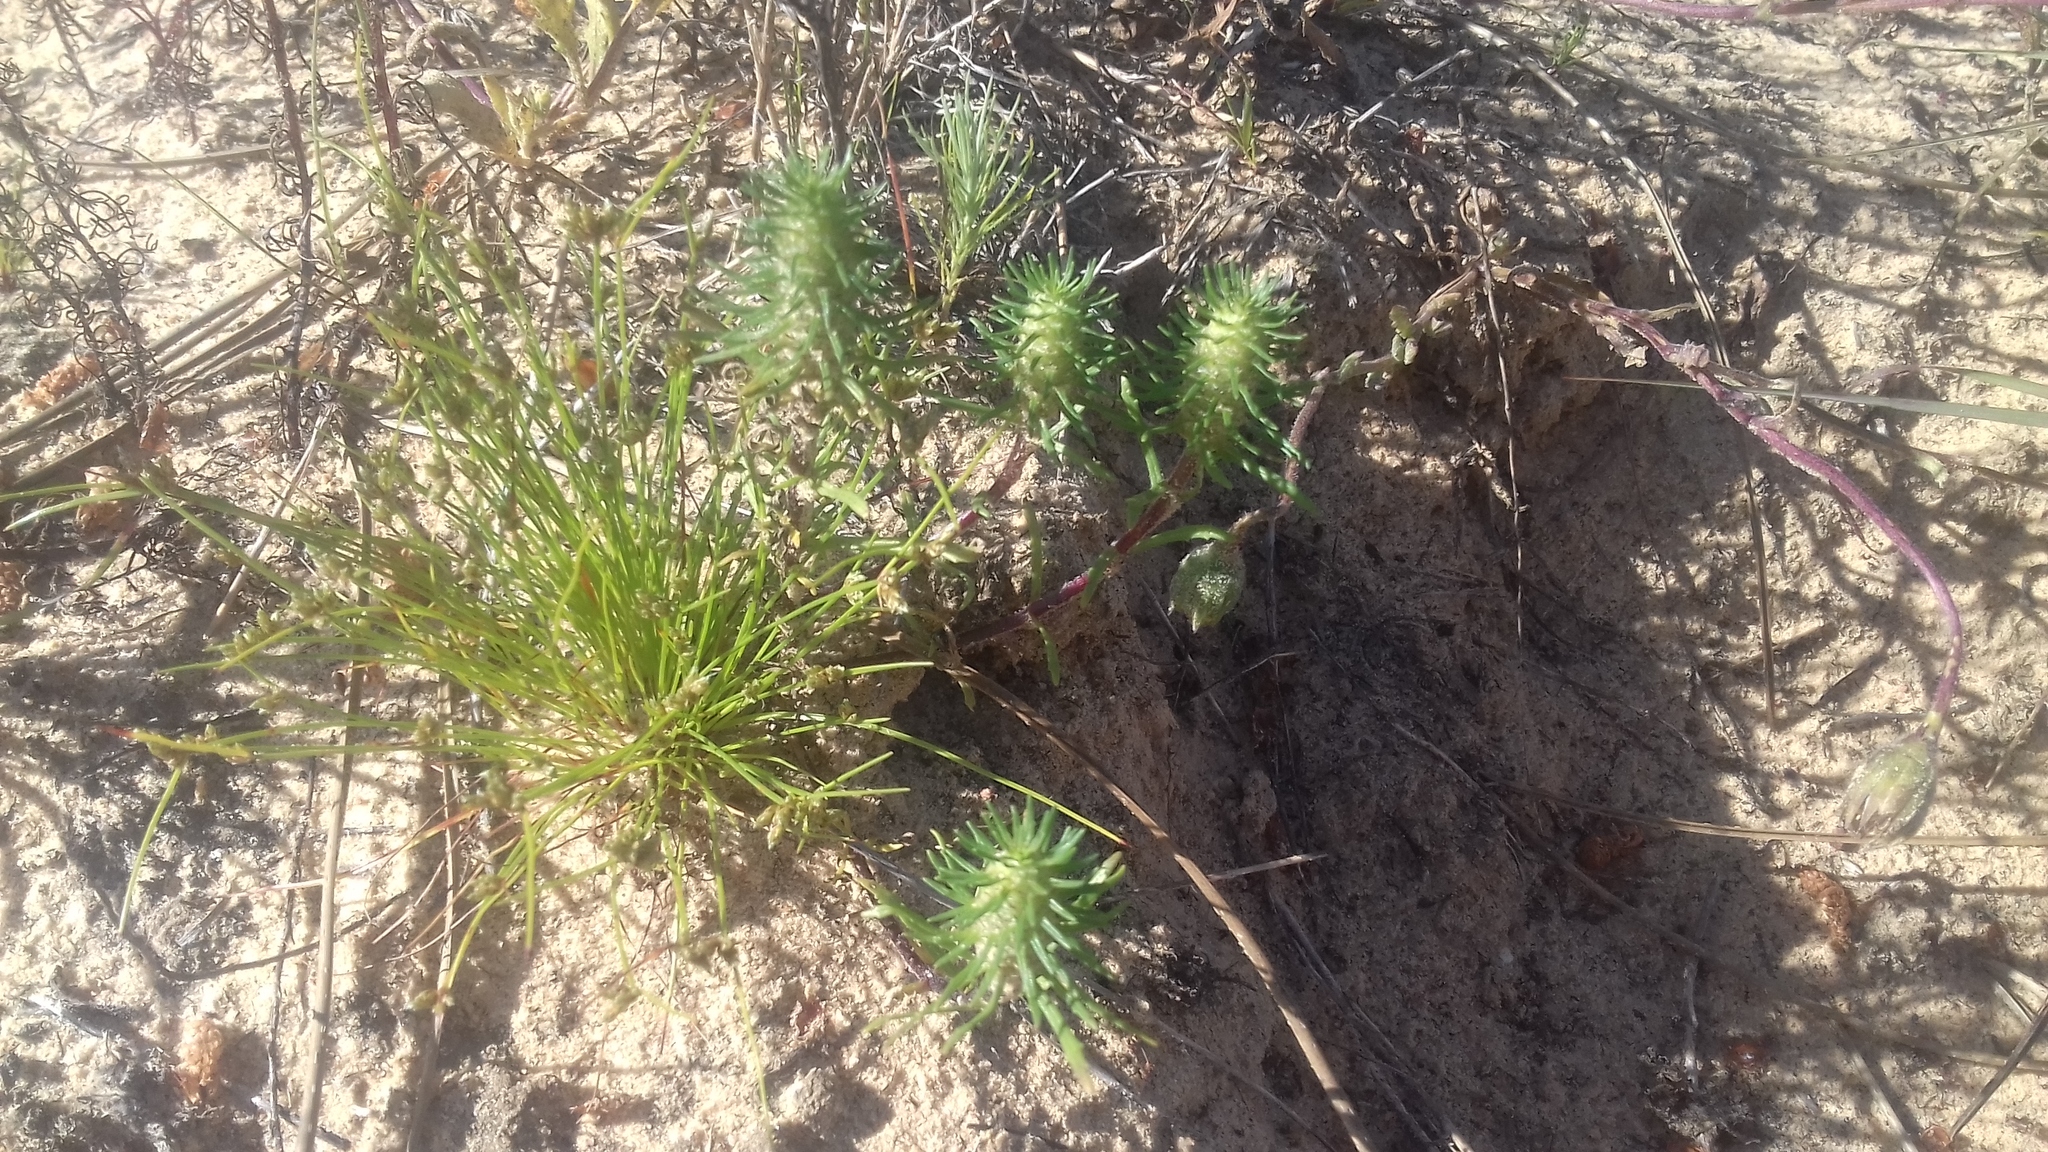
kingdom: Plantae
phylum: Tracheophyta
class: Magnoliopsida
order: Lamiales
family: Scrophulariaceae
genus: Dischisma
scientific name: Dischisma capitatum
